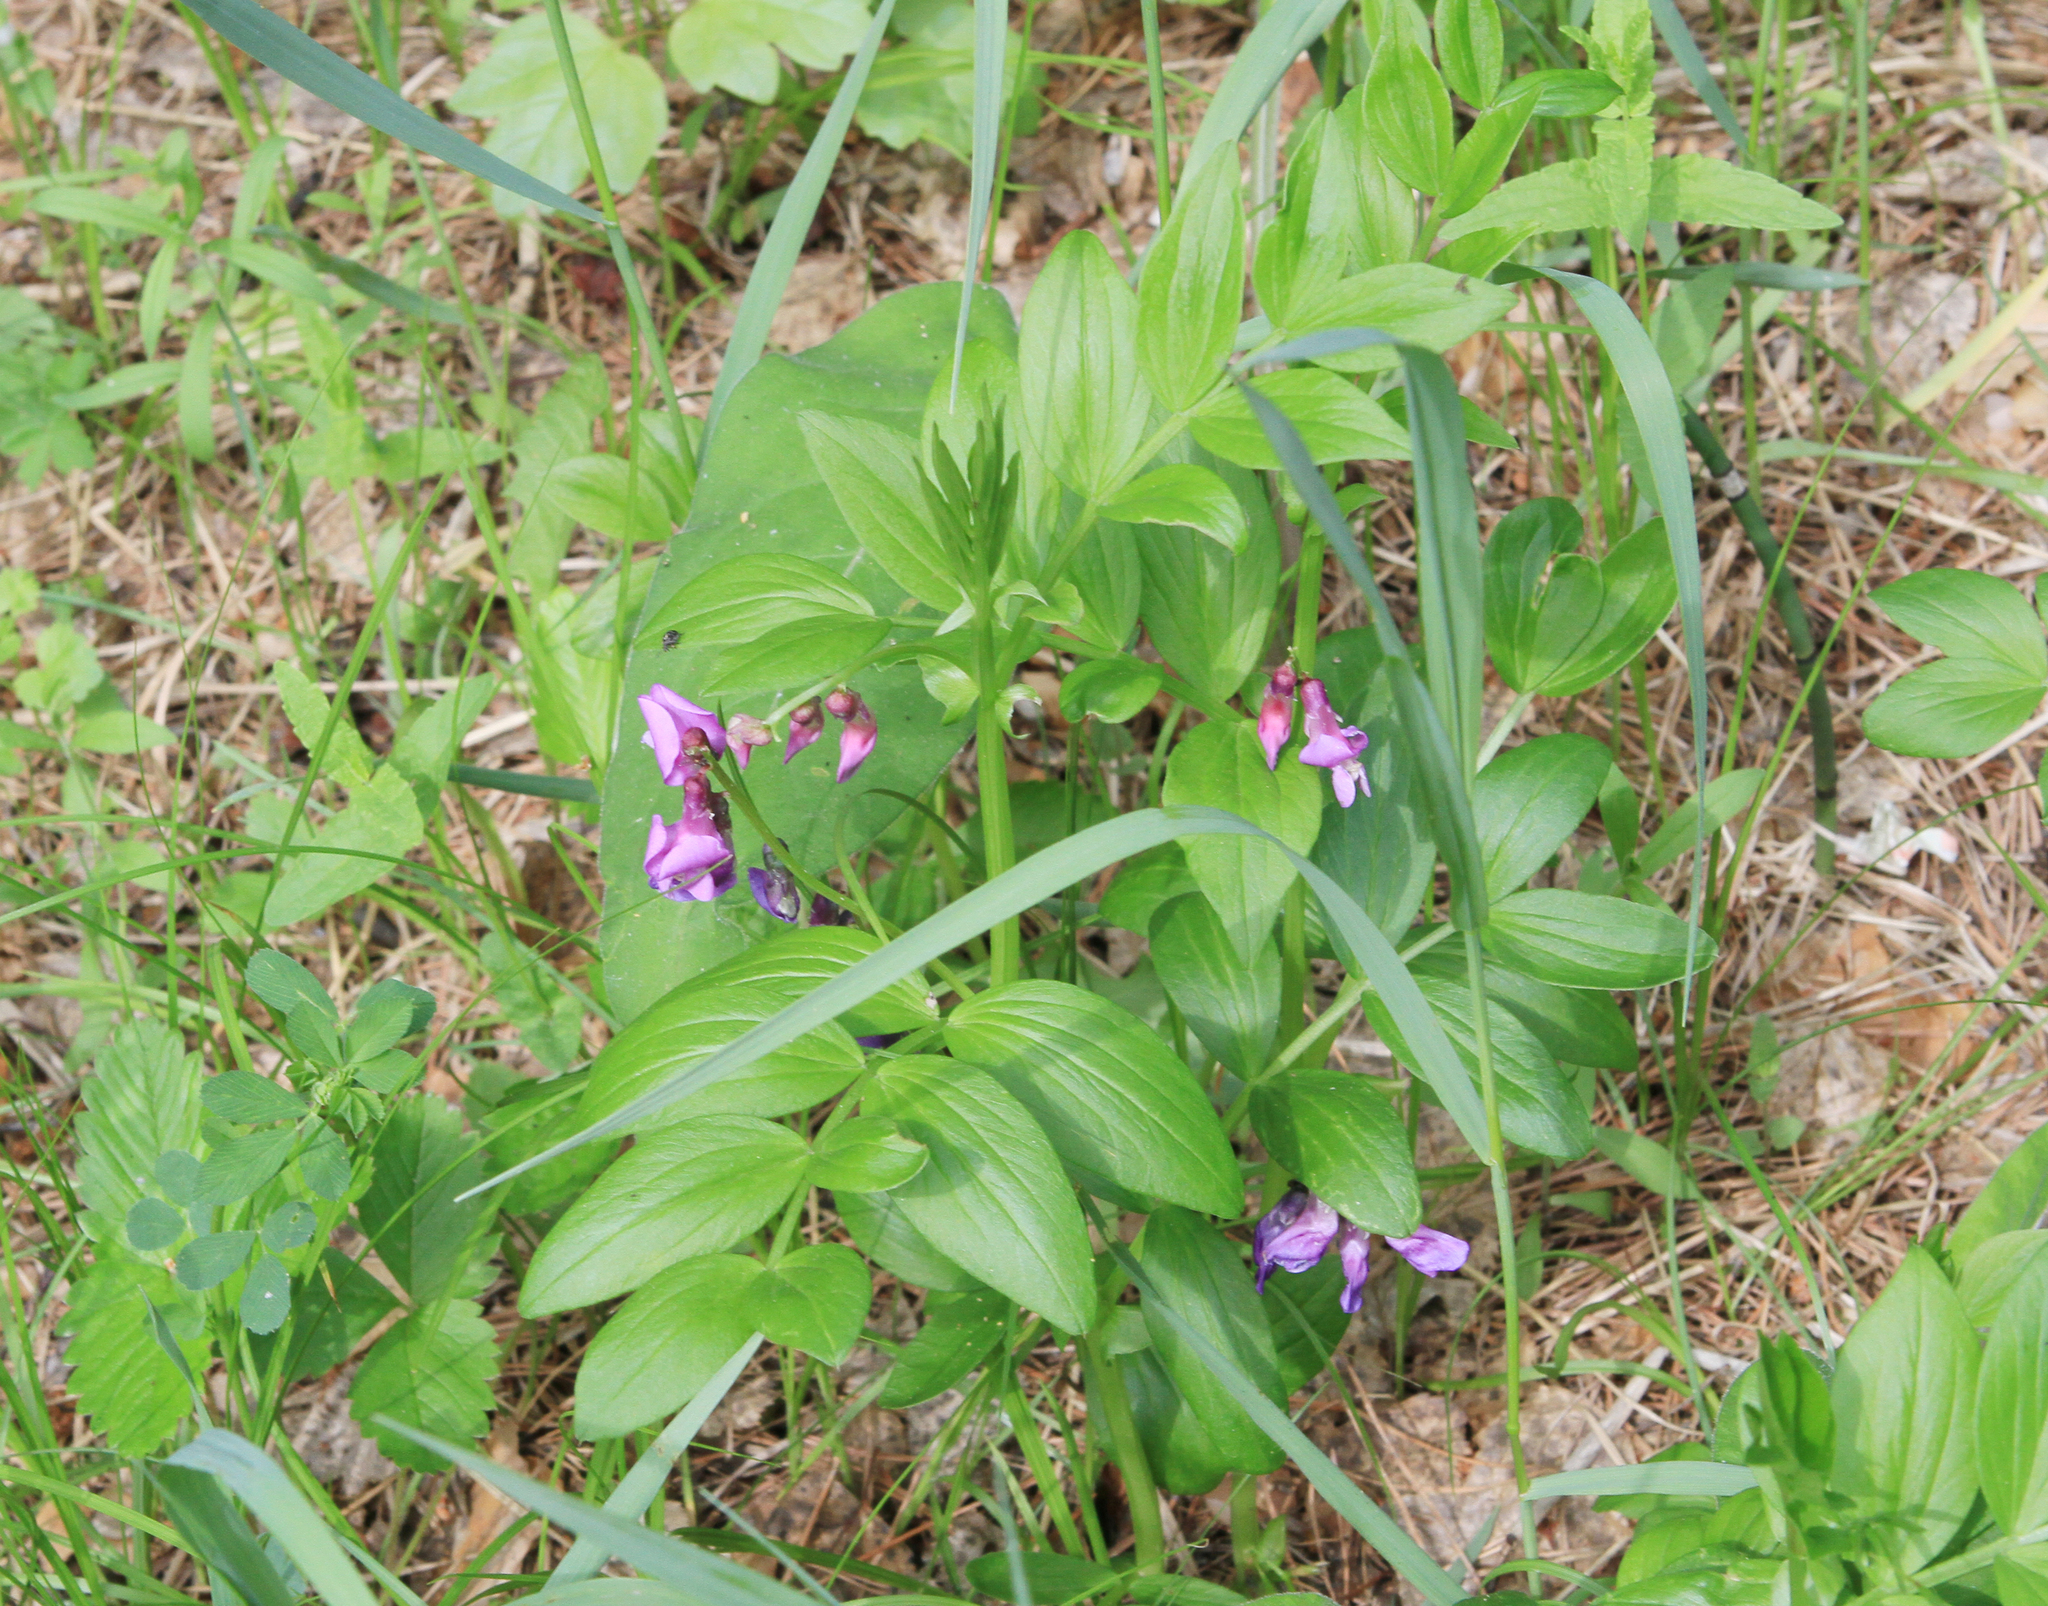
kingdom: Plantae
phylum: Tracheophyta
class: Magnoliopsida
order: Fabales
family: Fabaceae
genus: Lathyrus
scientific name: Lathyrus vernus
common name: Spring pea
